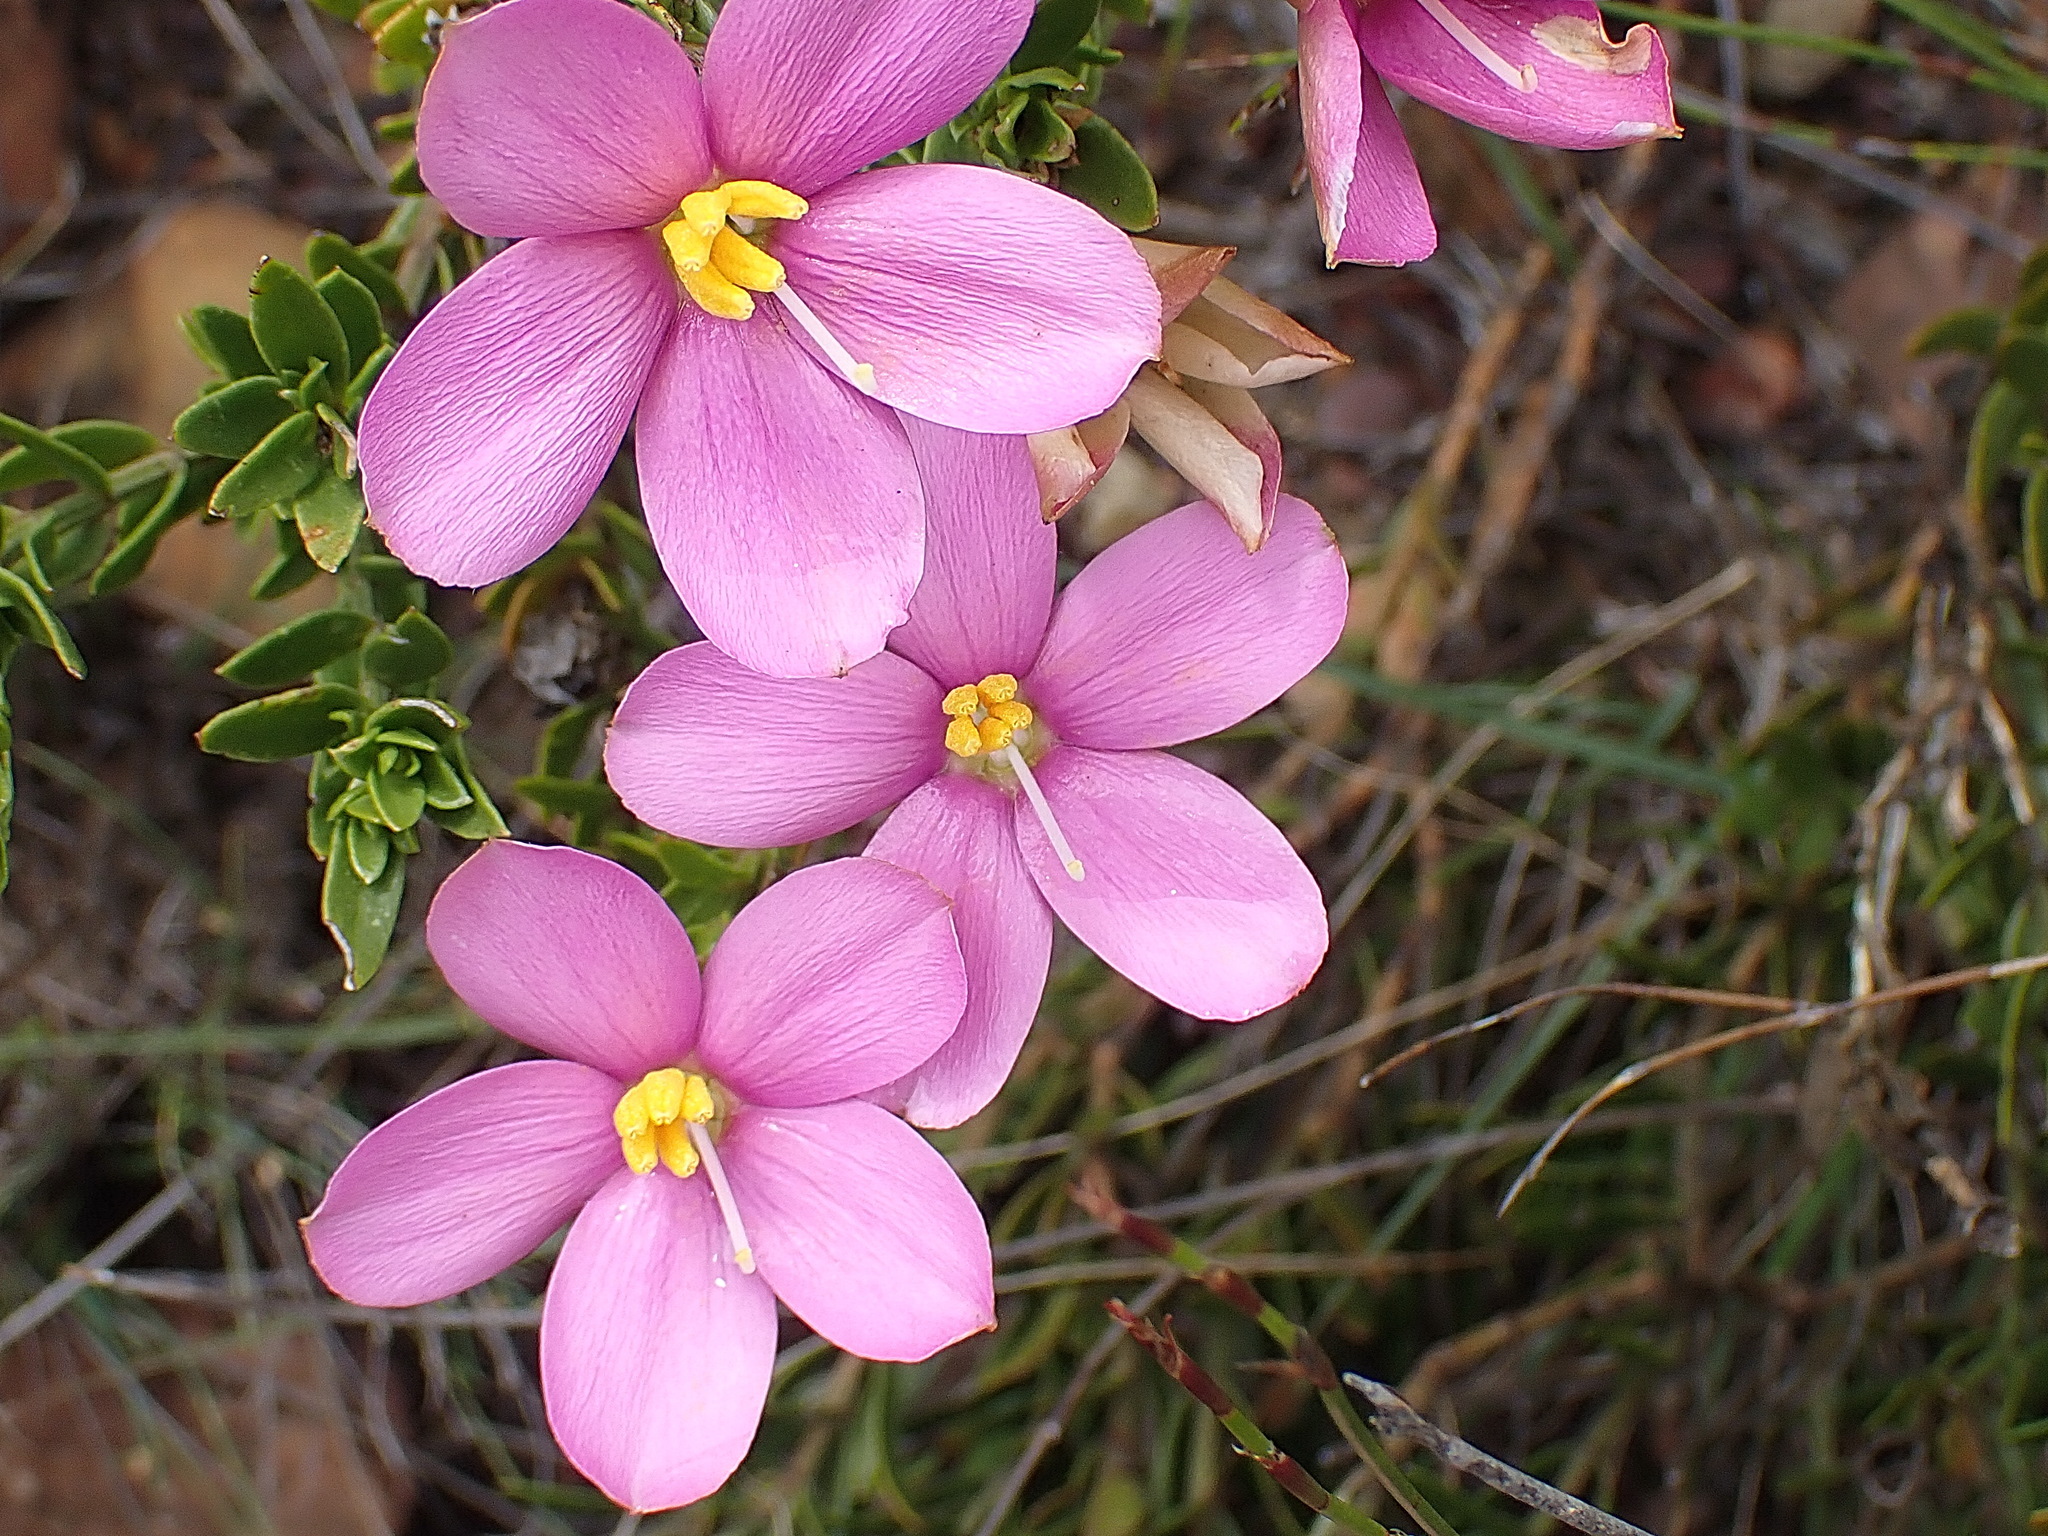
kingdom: Plantae
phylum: Tracheophyta
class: Magnoliopsida
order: Gentianales
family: Gentianaceae
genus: Chironia
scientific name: Chironia serpyllifolia
